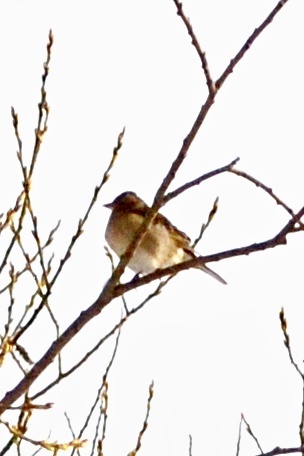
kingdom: Animalia
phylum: Chordata
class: Aves
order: Passeriformes
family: Fringillidae
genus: Fringilla
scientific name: Fringilla coelebs
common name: Common chaffinch
